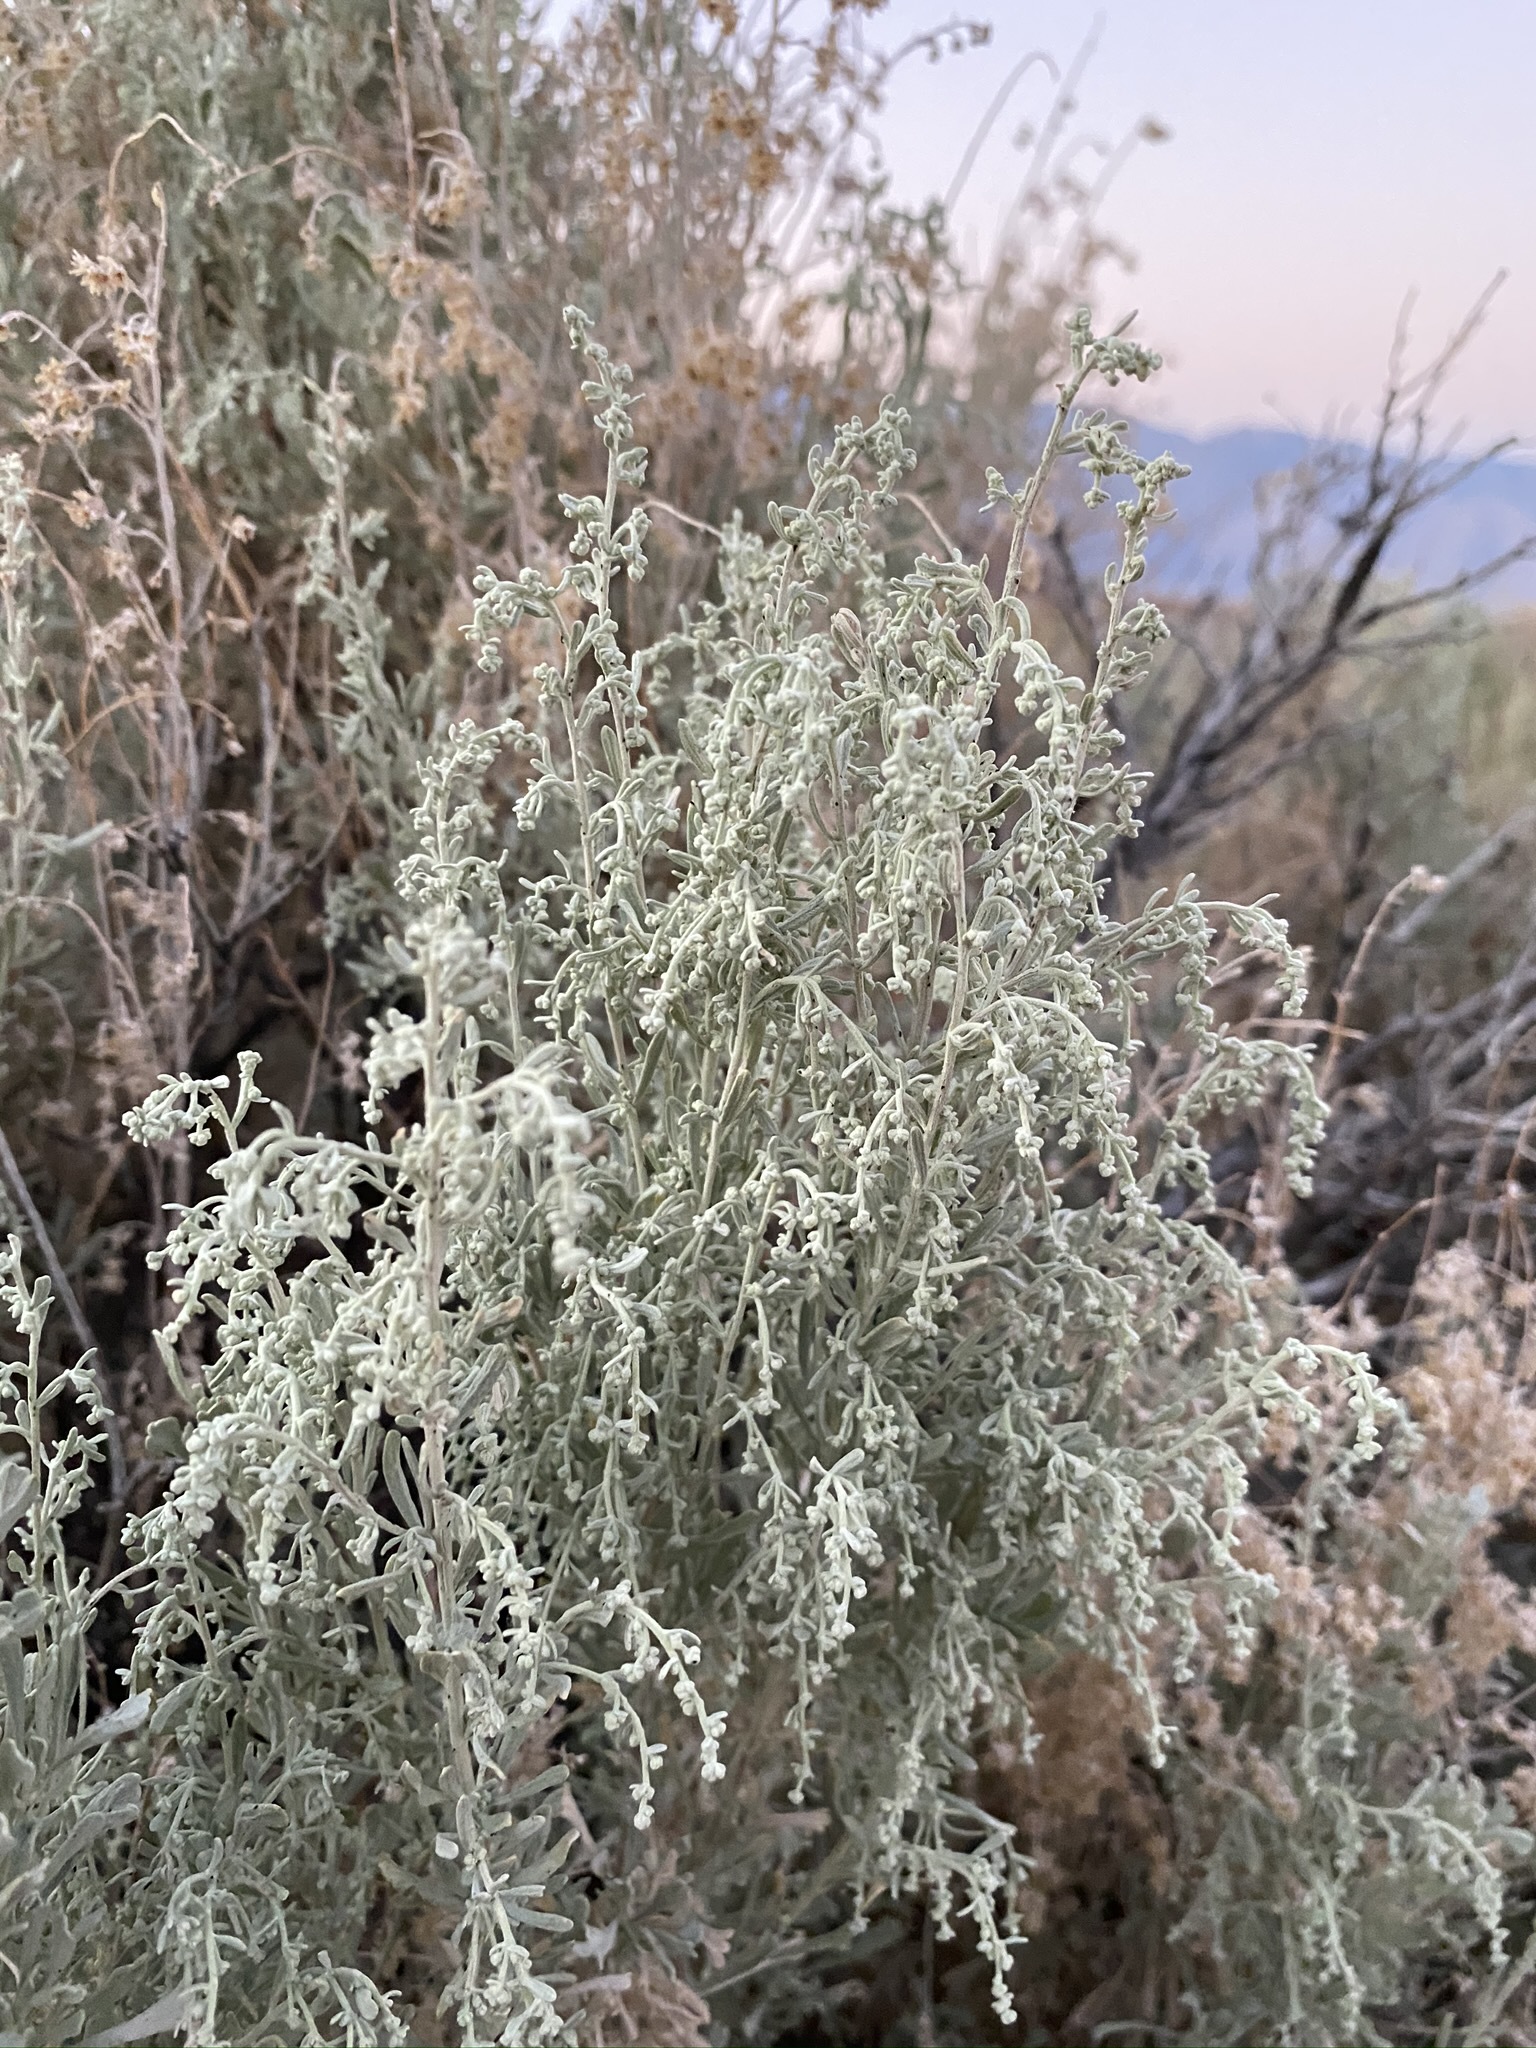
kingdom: Plantae
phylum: Tracheophyta
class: Magnoliopsida
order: Asterales
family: Asteraceae
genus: Artemisia
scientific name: Artemisia tridentata
